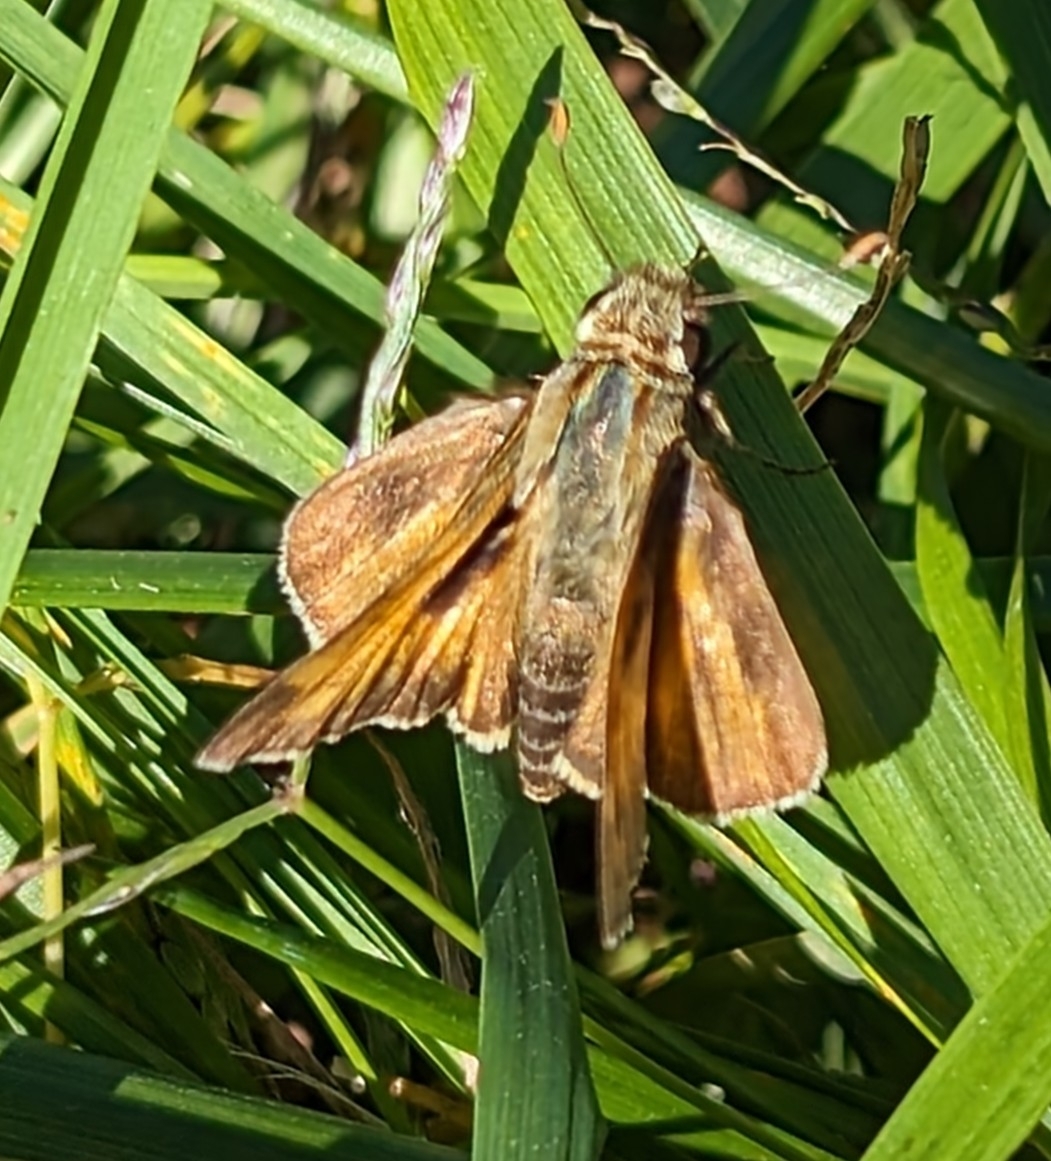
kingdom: Animalia
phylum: Arthropoda
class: Insecta
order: Lepidoptera
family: Hesperiidae
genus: Atalopedes
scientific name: Atalopedes
